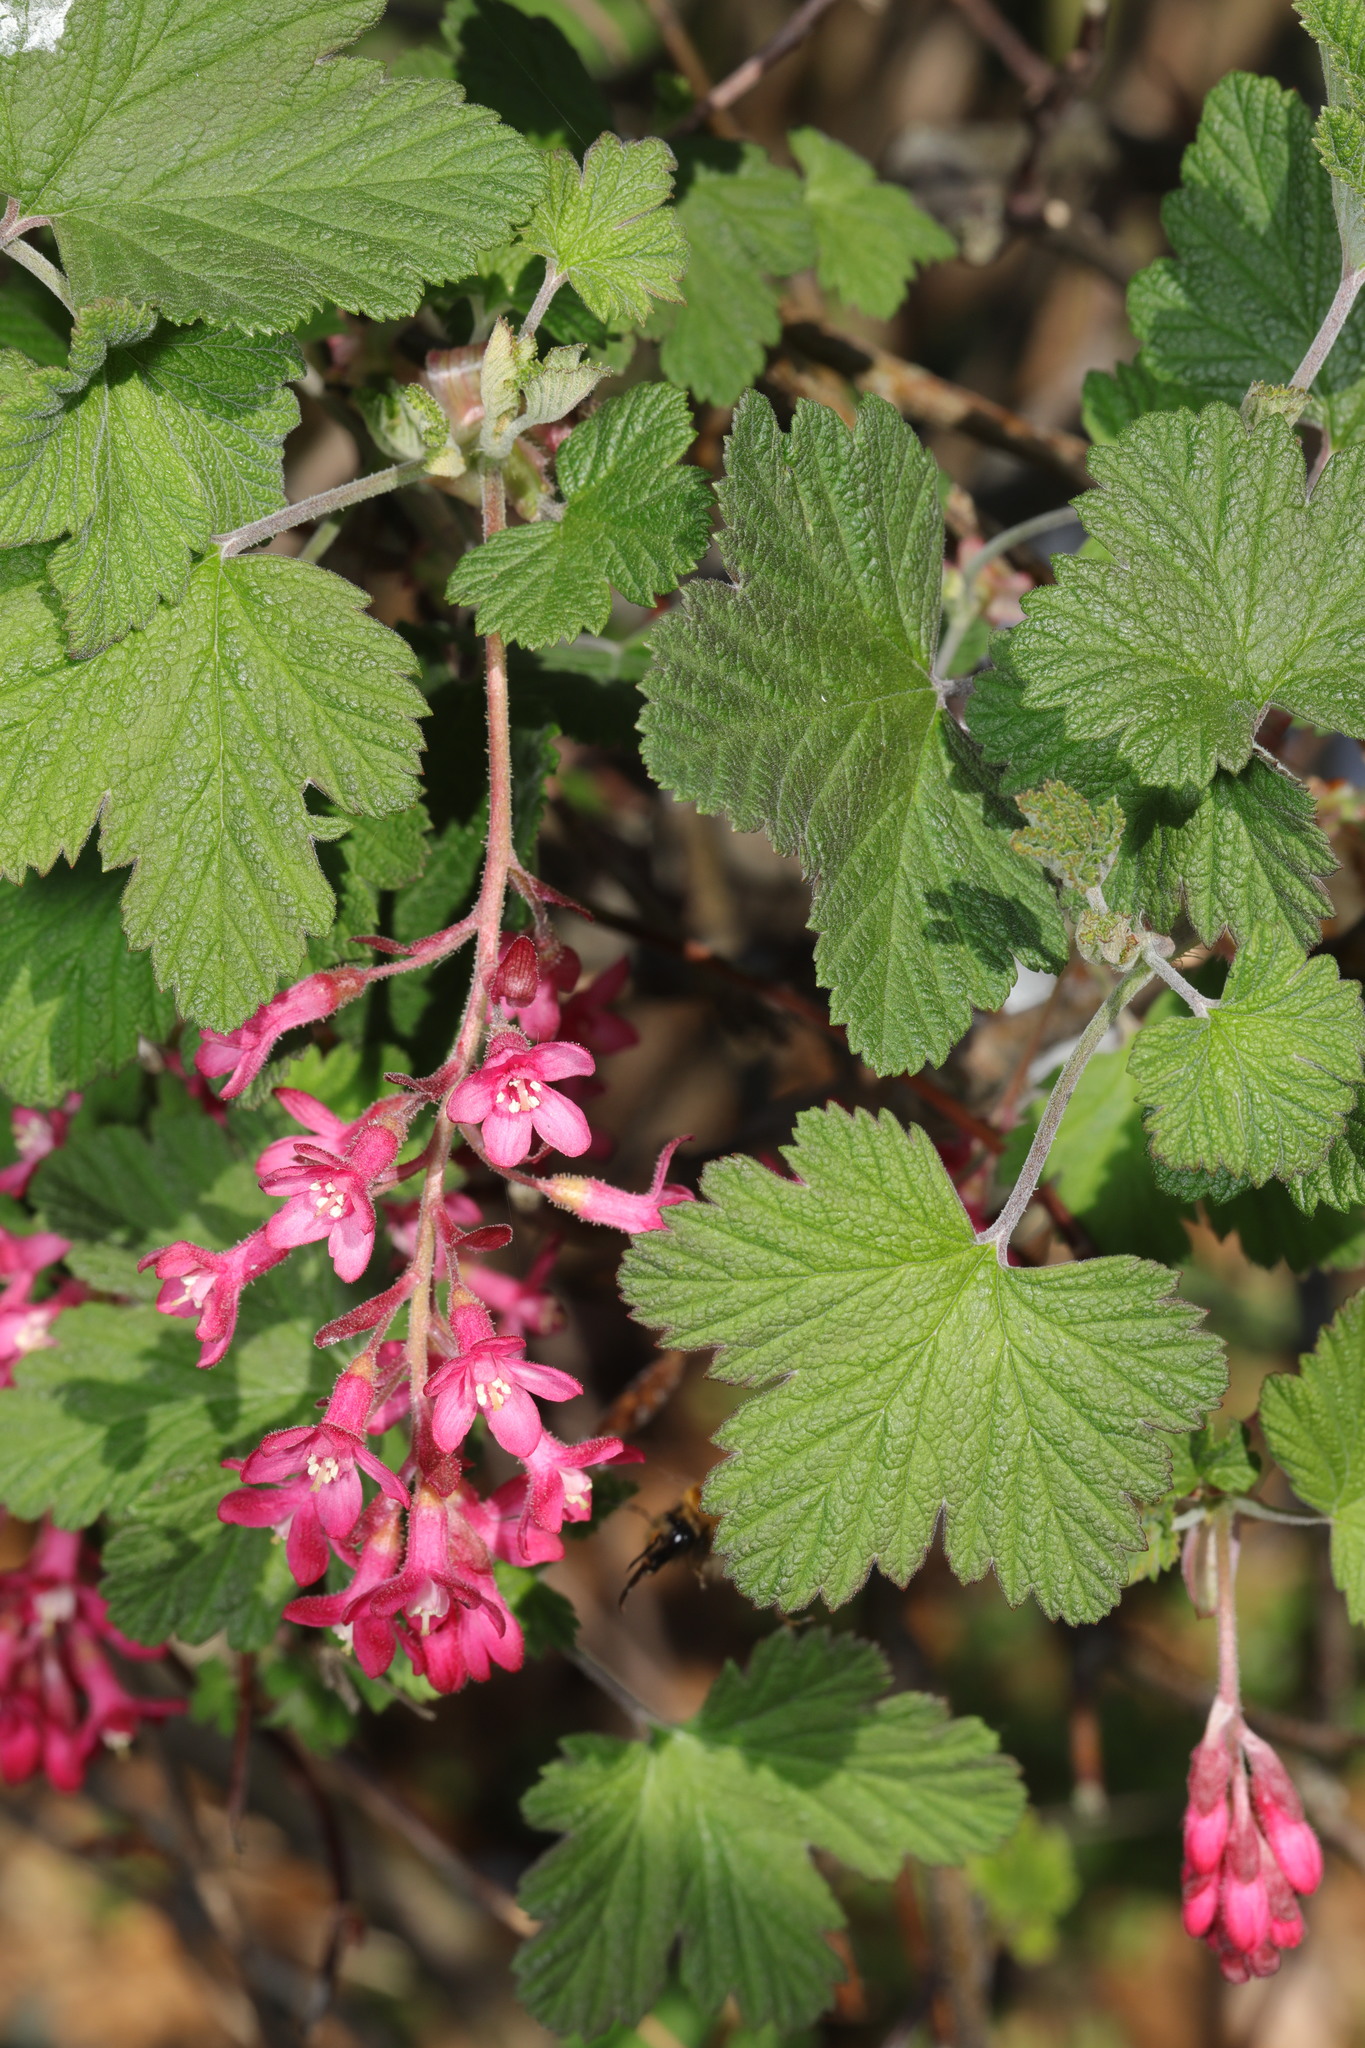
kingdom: Plantae
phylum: Tracheophyta
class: Magnoliopsida
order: Saxifragales
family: Grossulariaceae
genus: Ribes
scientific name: Ribes sanguineum
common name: Flowering currant
